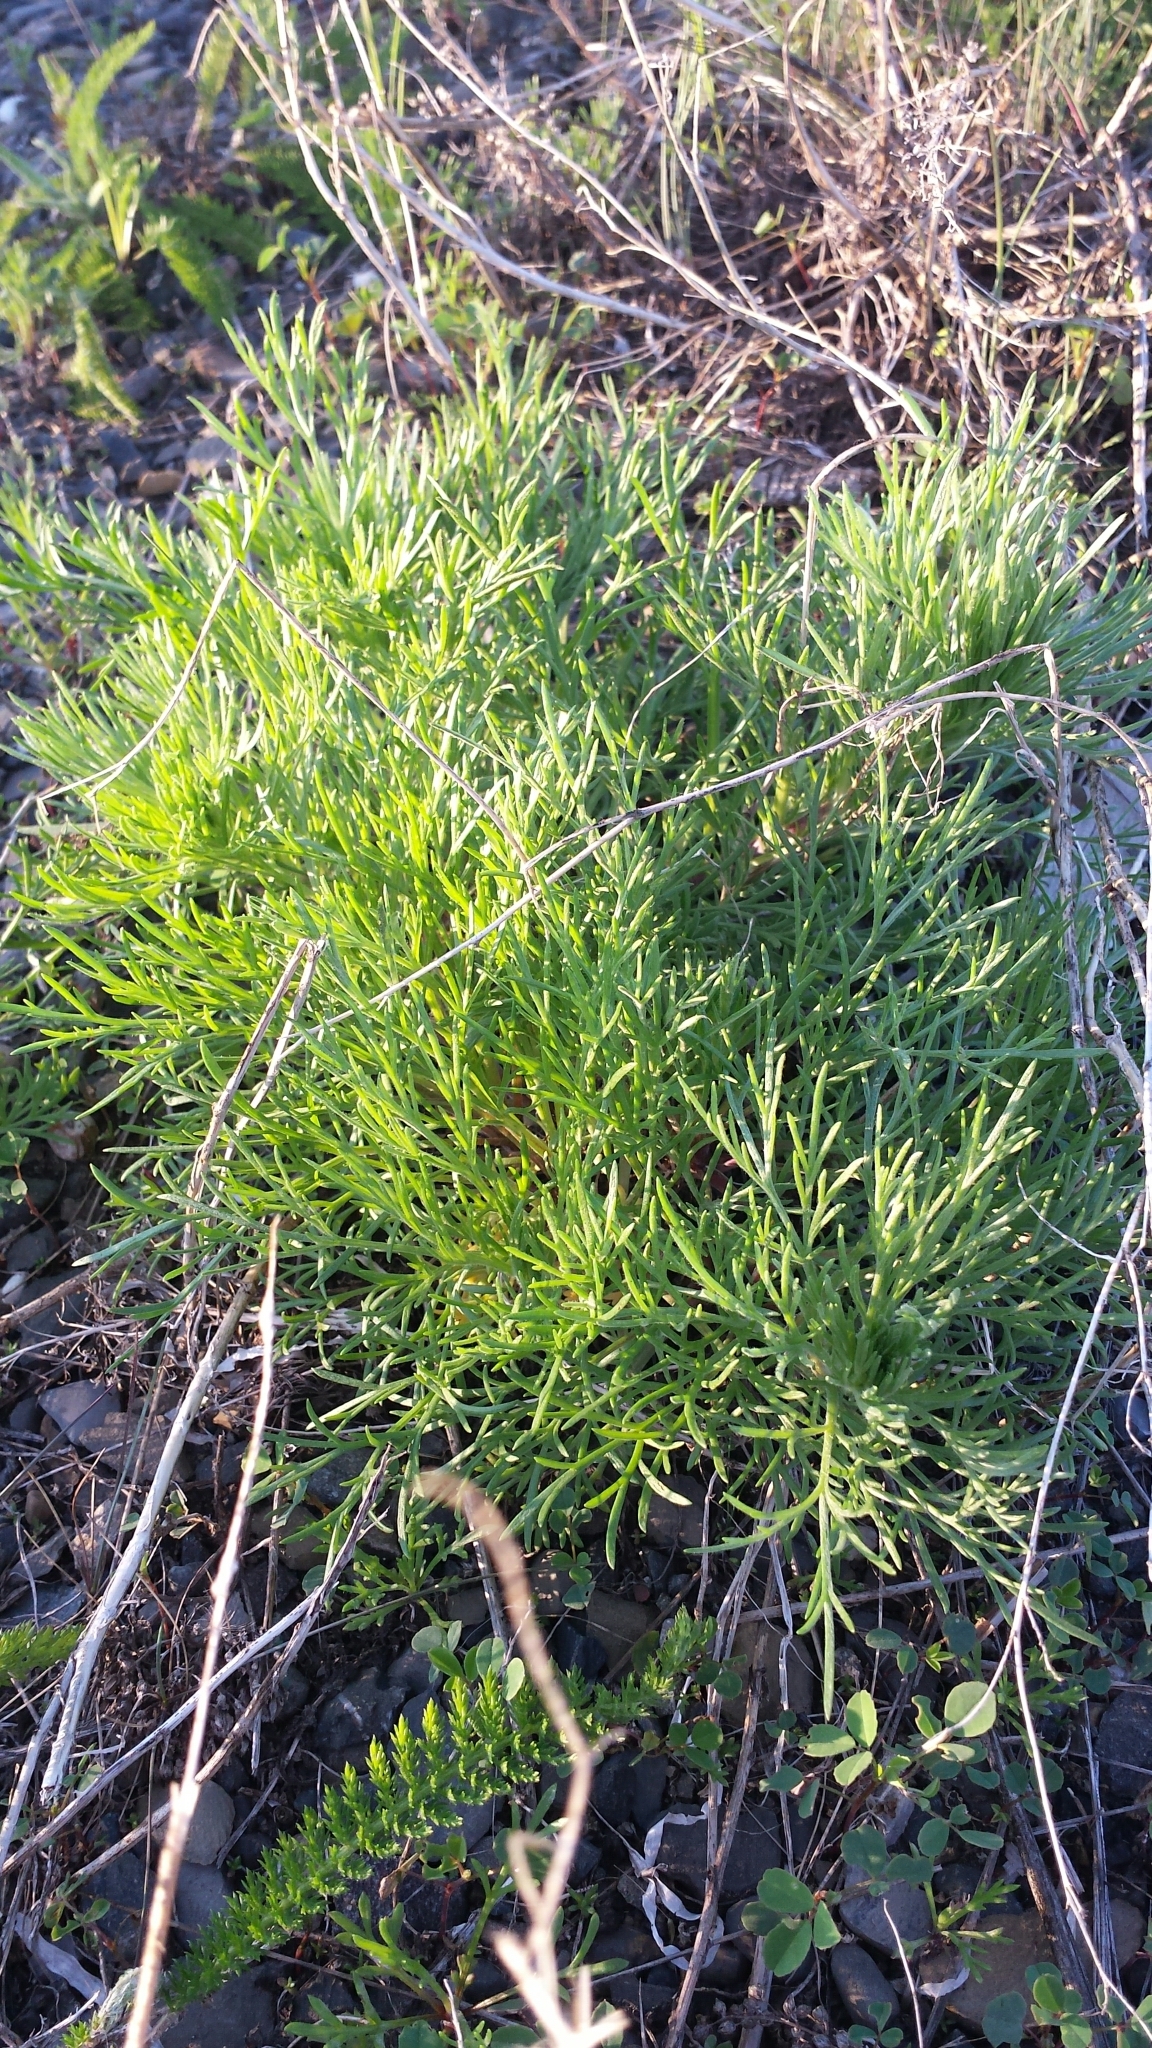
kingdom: Plantae
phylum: Tracheophyta
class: Magnoliopsida
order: Asterales
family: Asteraceae
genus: Artemisia
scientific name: Artemisia campestris
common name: Field wormwood
